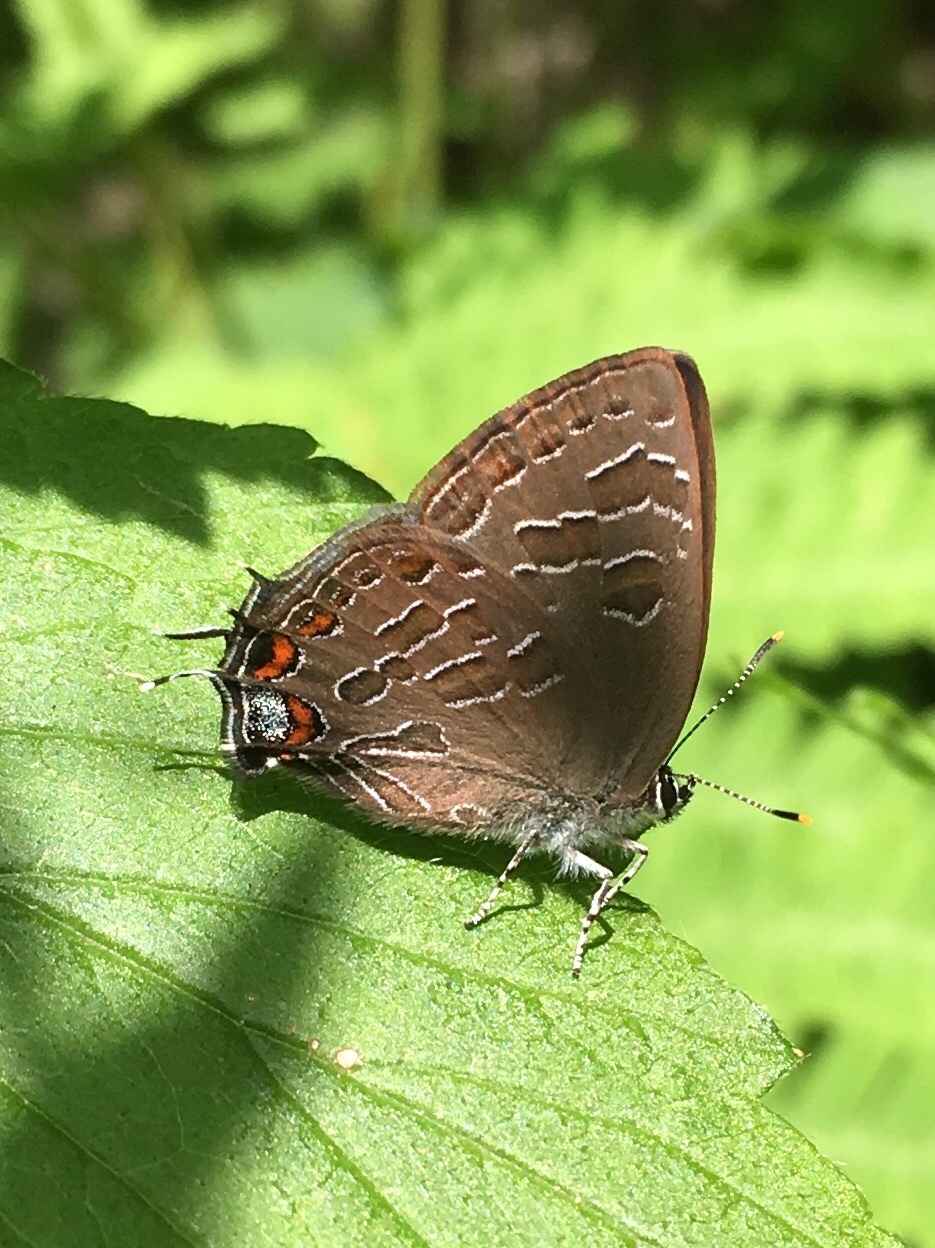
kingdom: Animalia
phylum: Arthropoda
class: Insecta
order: Lepidoptera
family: Lycaenidae
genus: Satyrium
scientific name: Satyrium liparops
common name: Striped hairstreak
